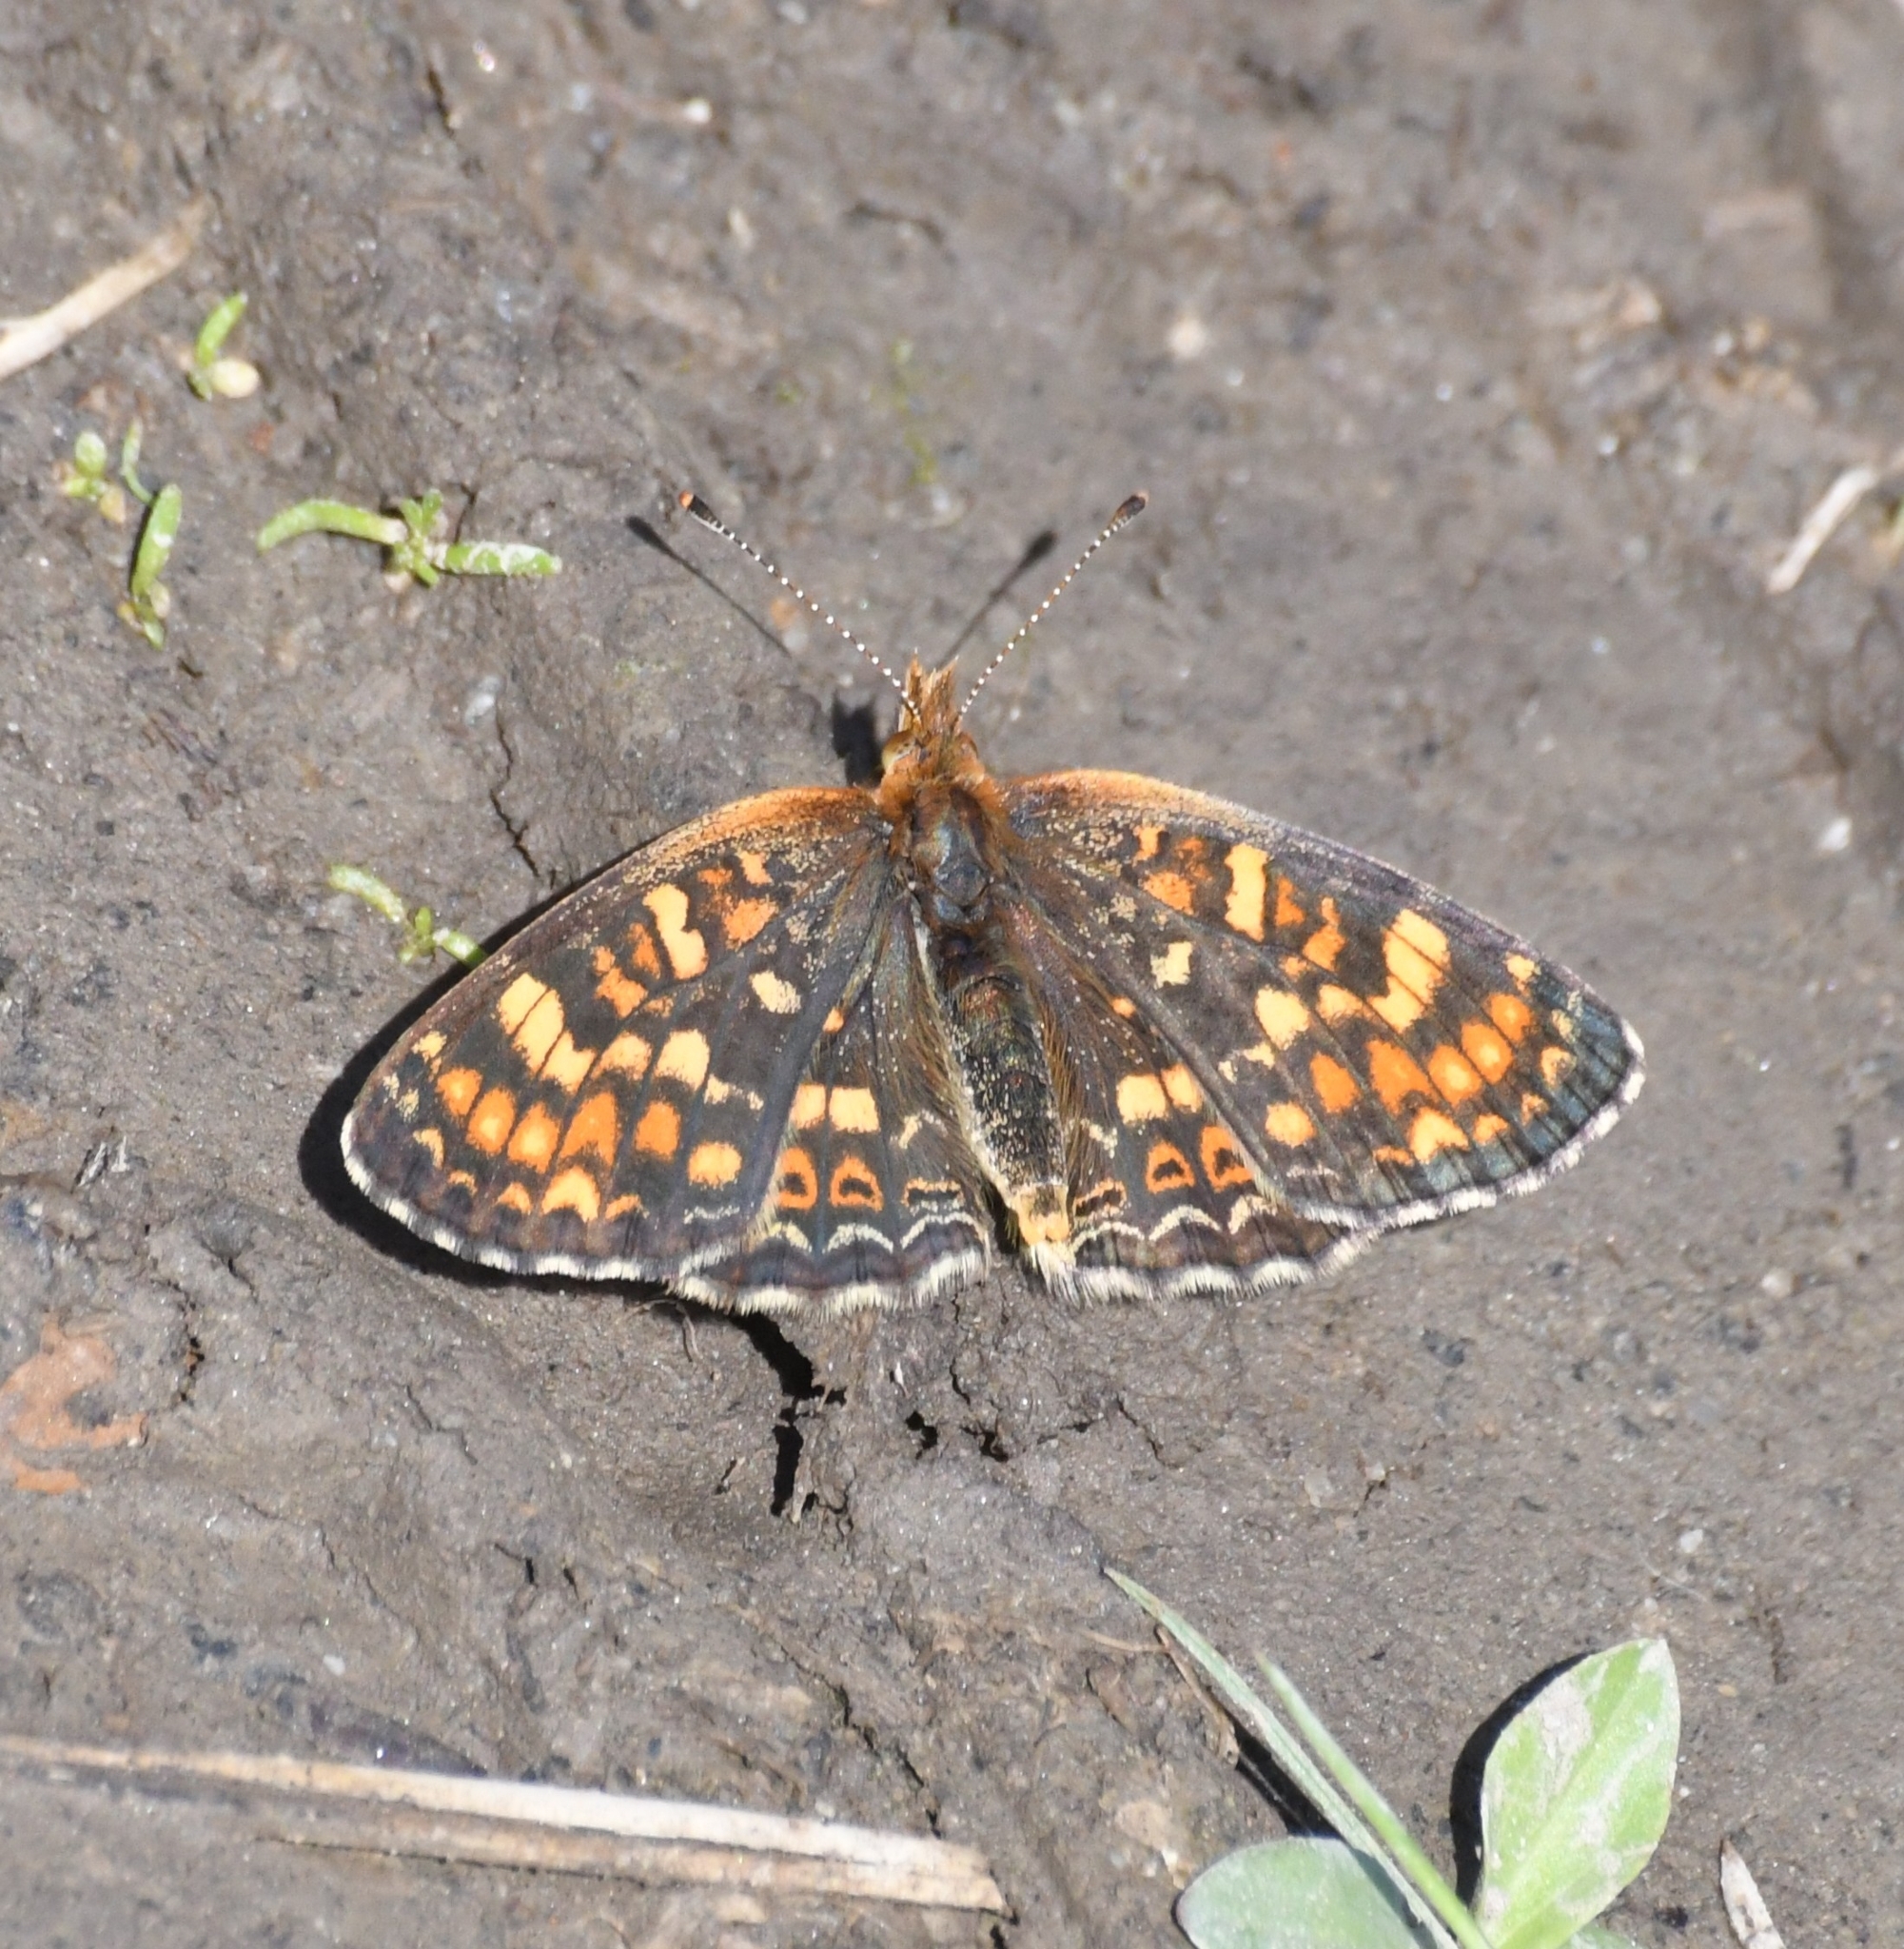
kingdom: Animalia
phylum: Arthropoda
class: Insecta
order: Lepidoptera
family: Nymphalidae
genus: Phyciodes
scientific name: Phyciodes tharos
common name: Pearl crescent
